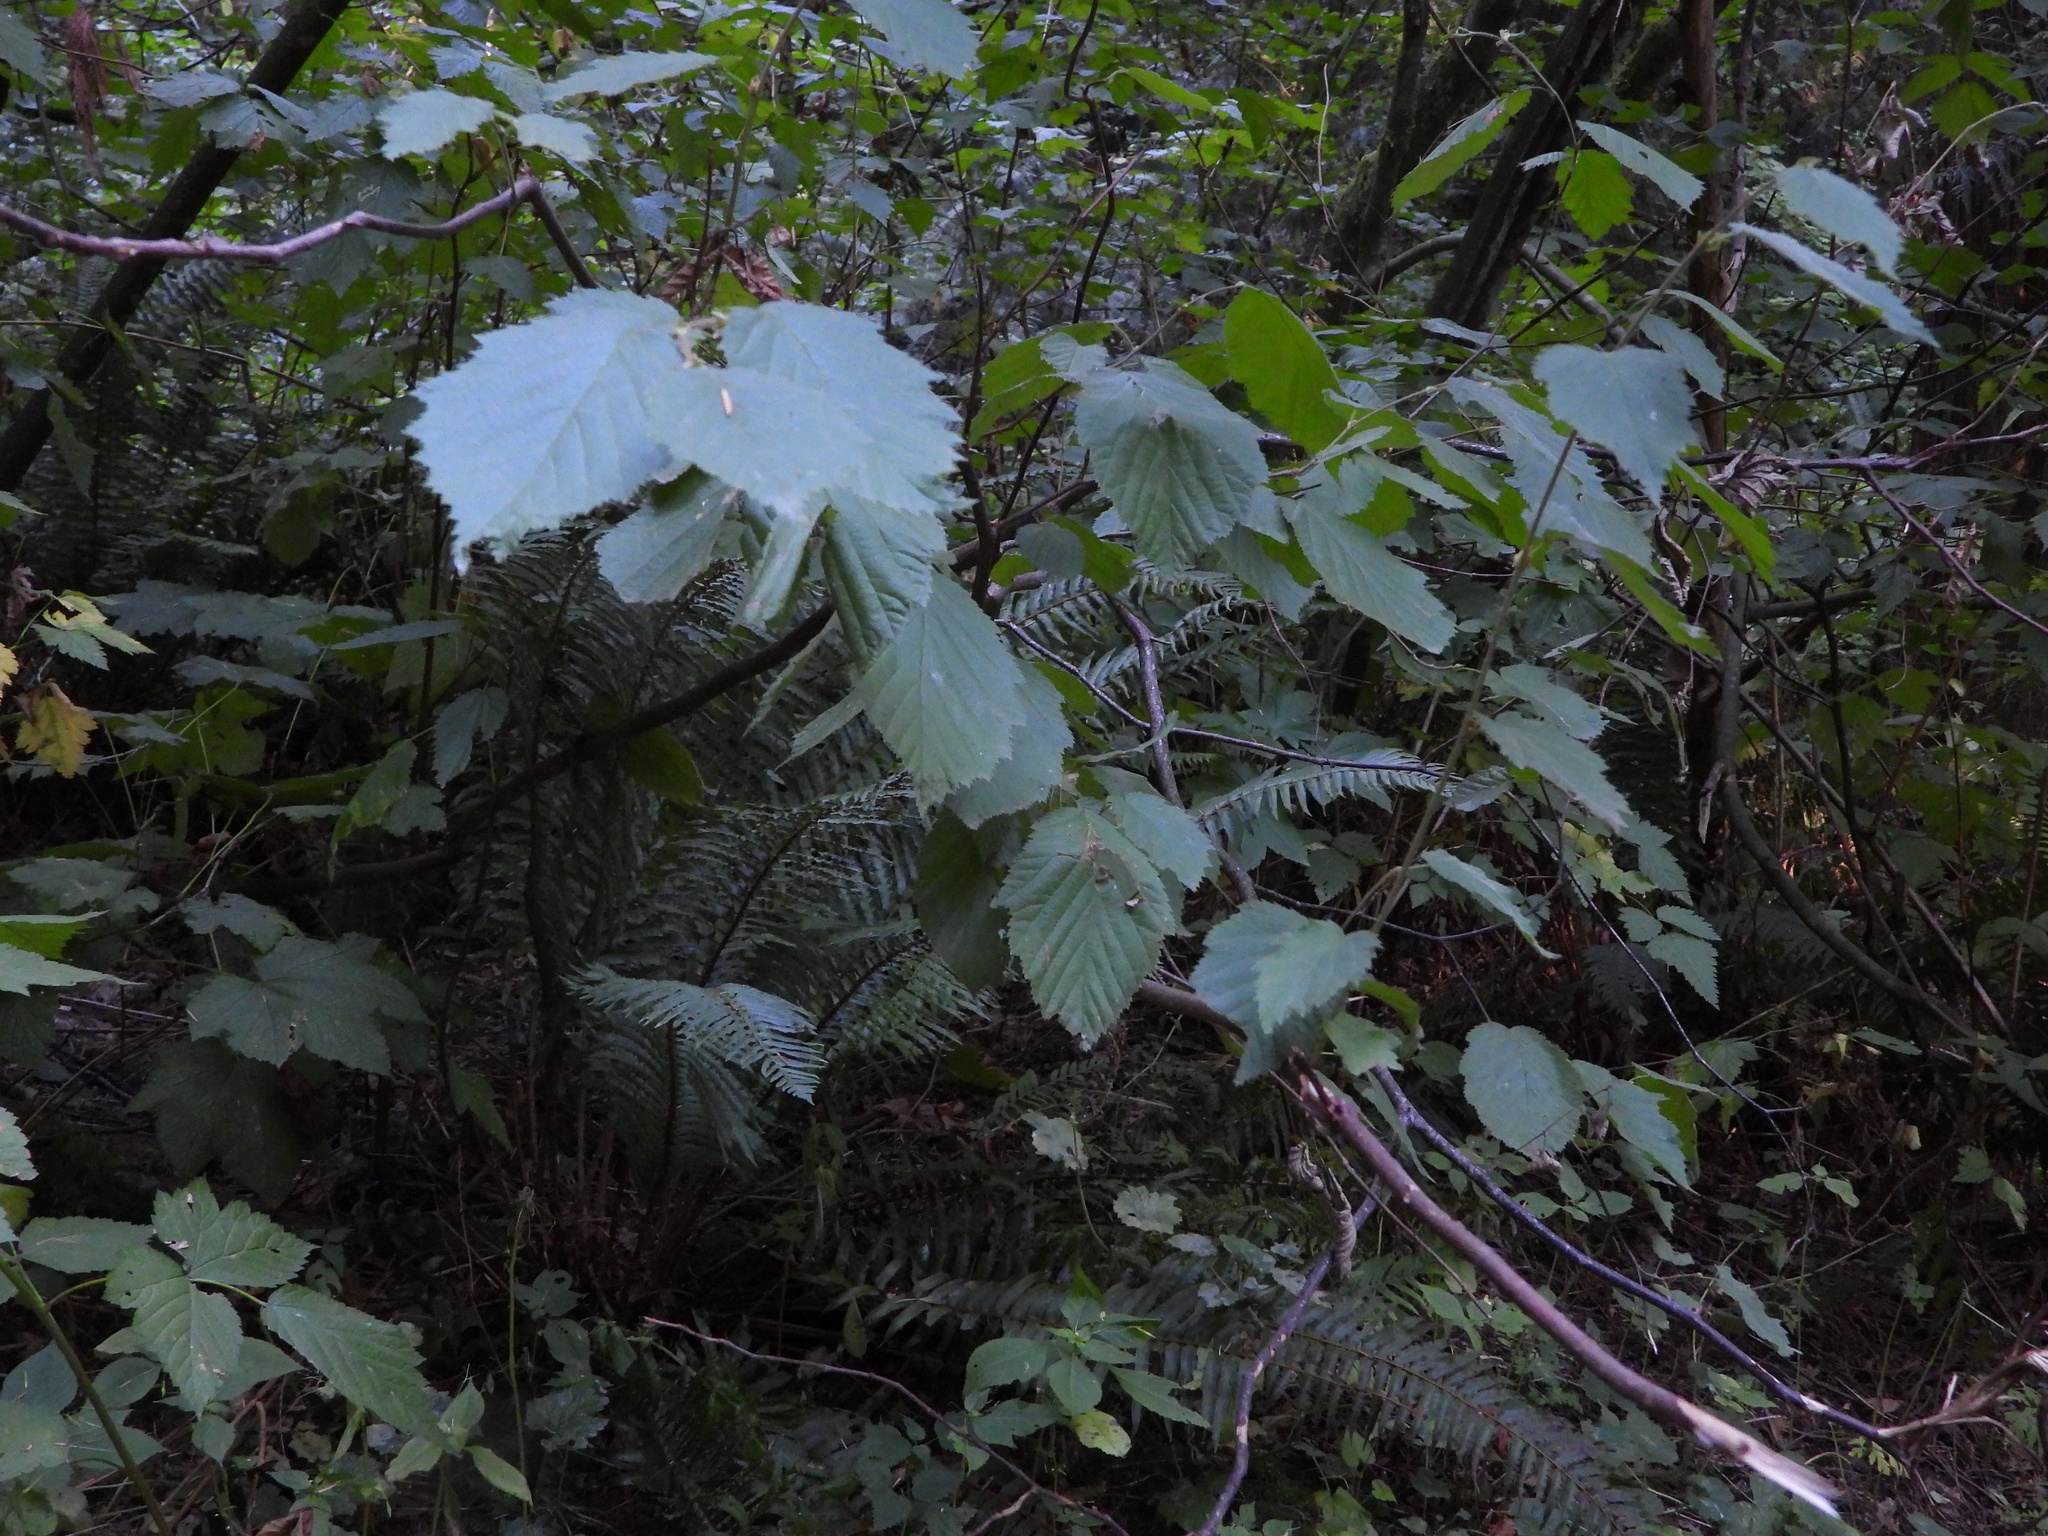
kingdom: Plantae
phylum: Tracheophyta
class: Magnoliopsida
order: Fagales
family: Betulaceae
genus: Corylus
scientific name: Corylus cornuta
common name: Beaked hazel
